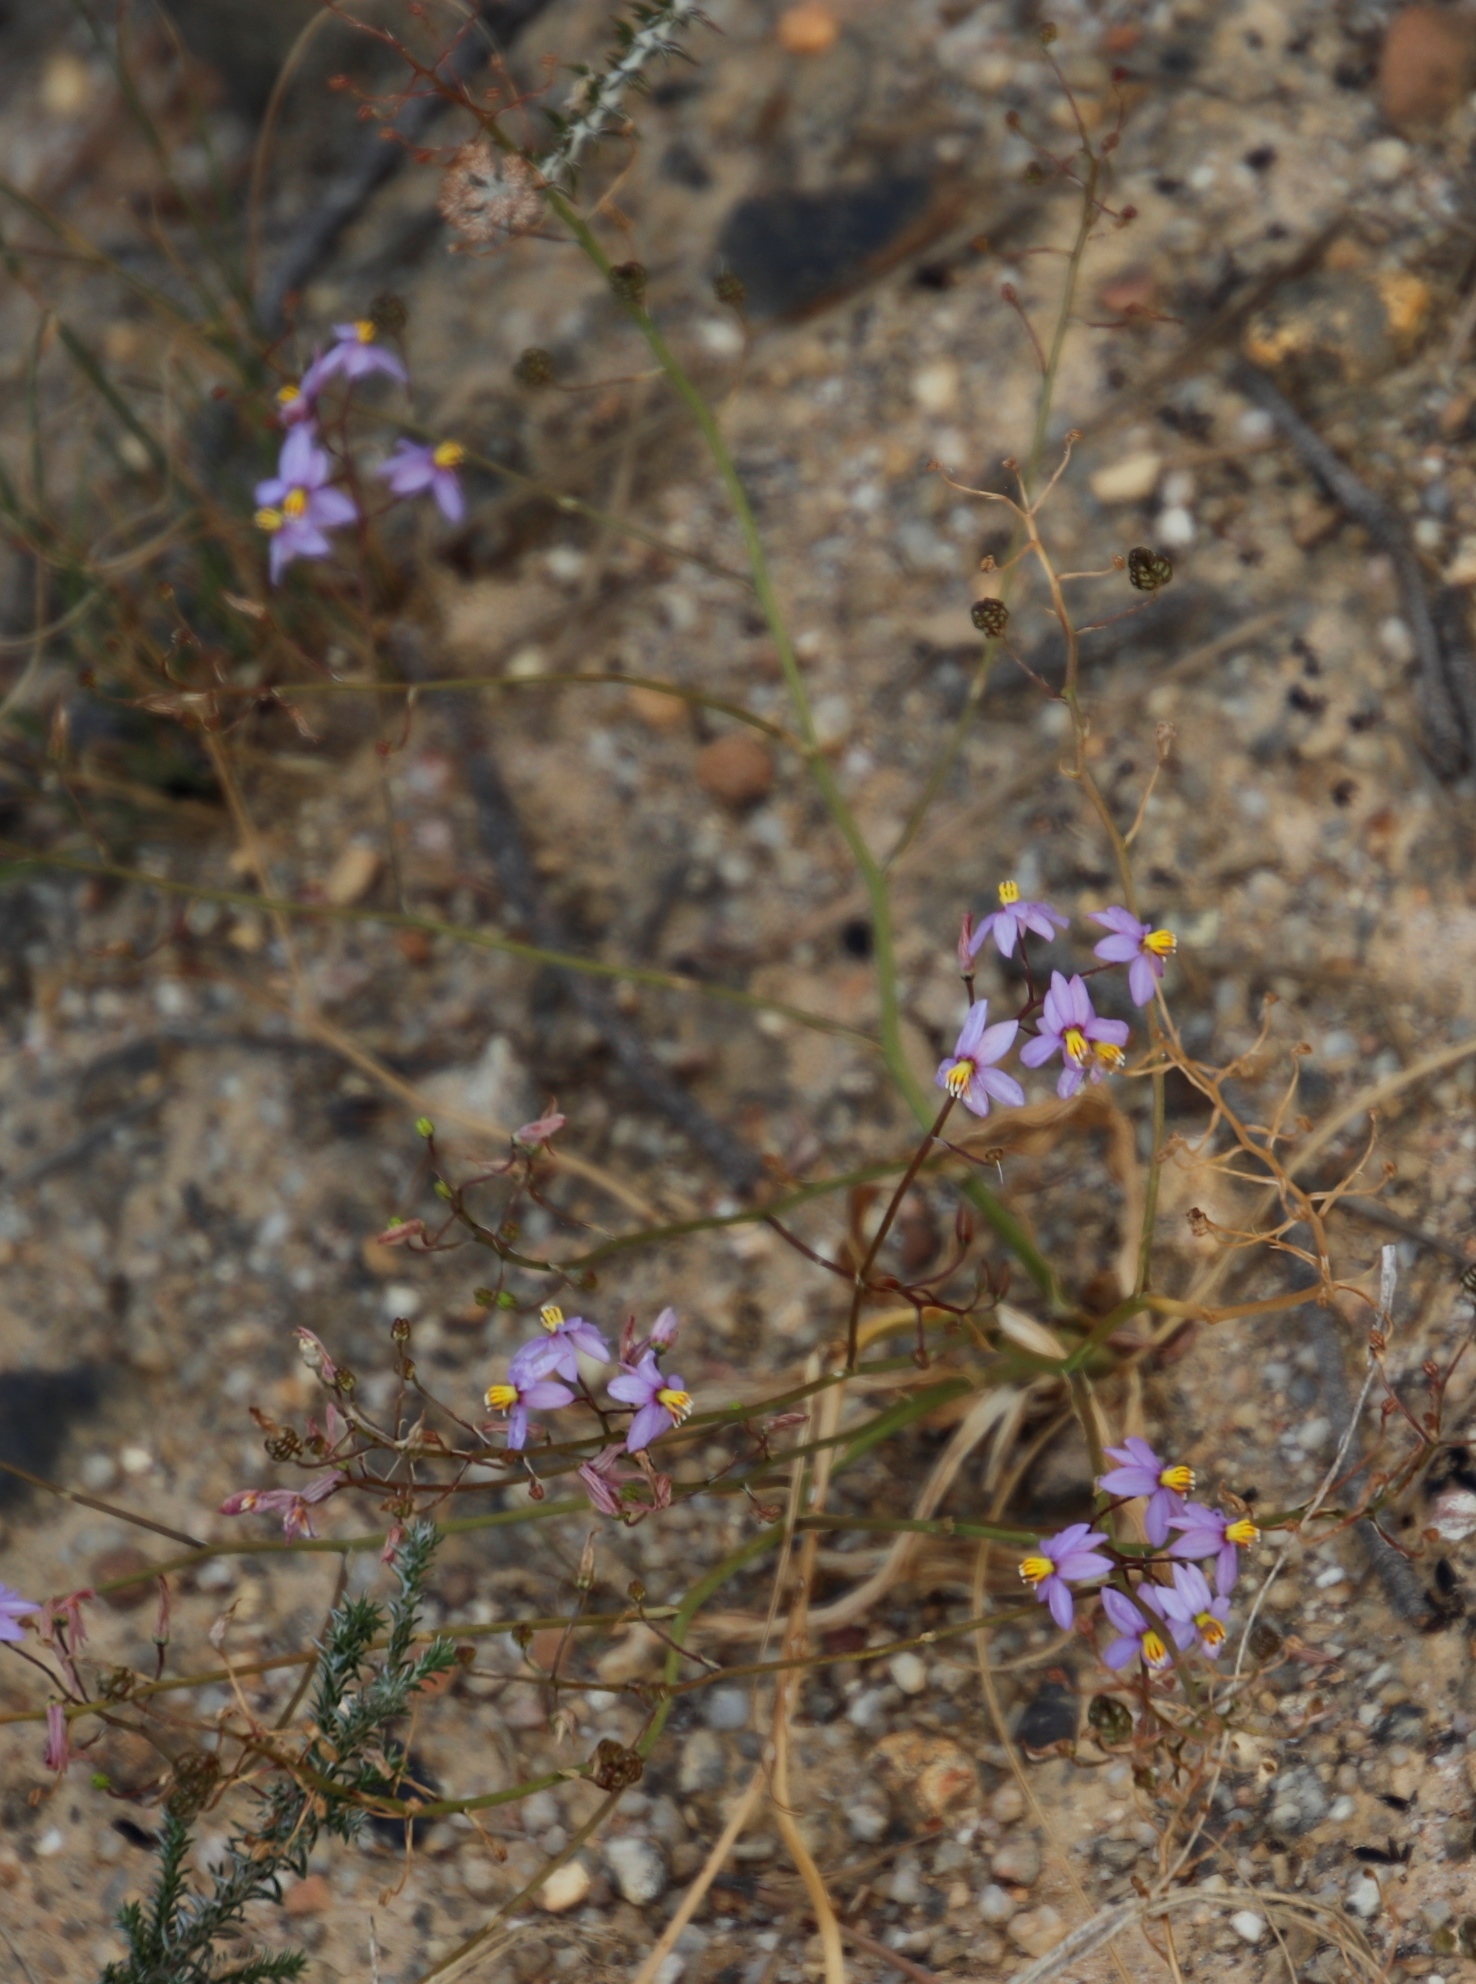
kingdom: Plantae
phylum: Tracheophyta
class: Liliopsida
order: Asparagales
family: Tecophilaeaceae
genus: Cyanella
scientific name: Cyanella hyacinthoides
